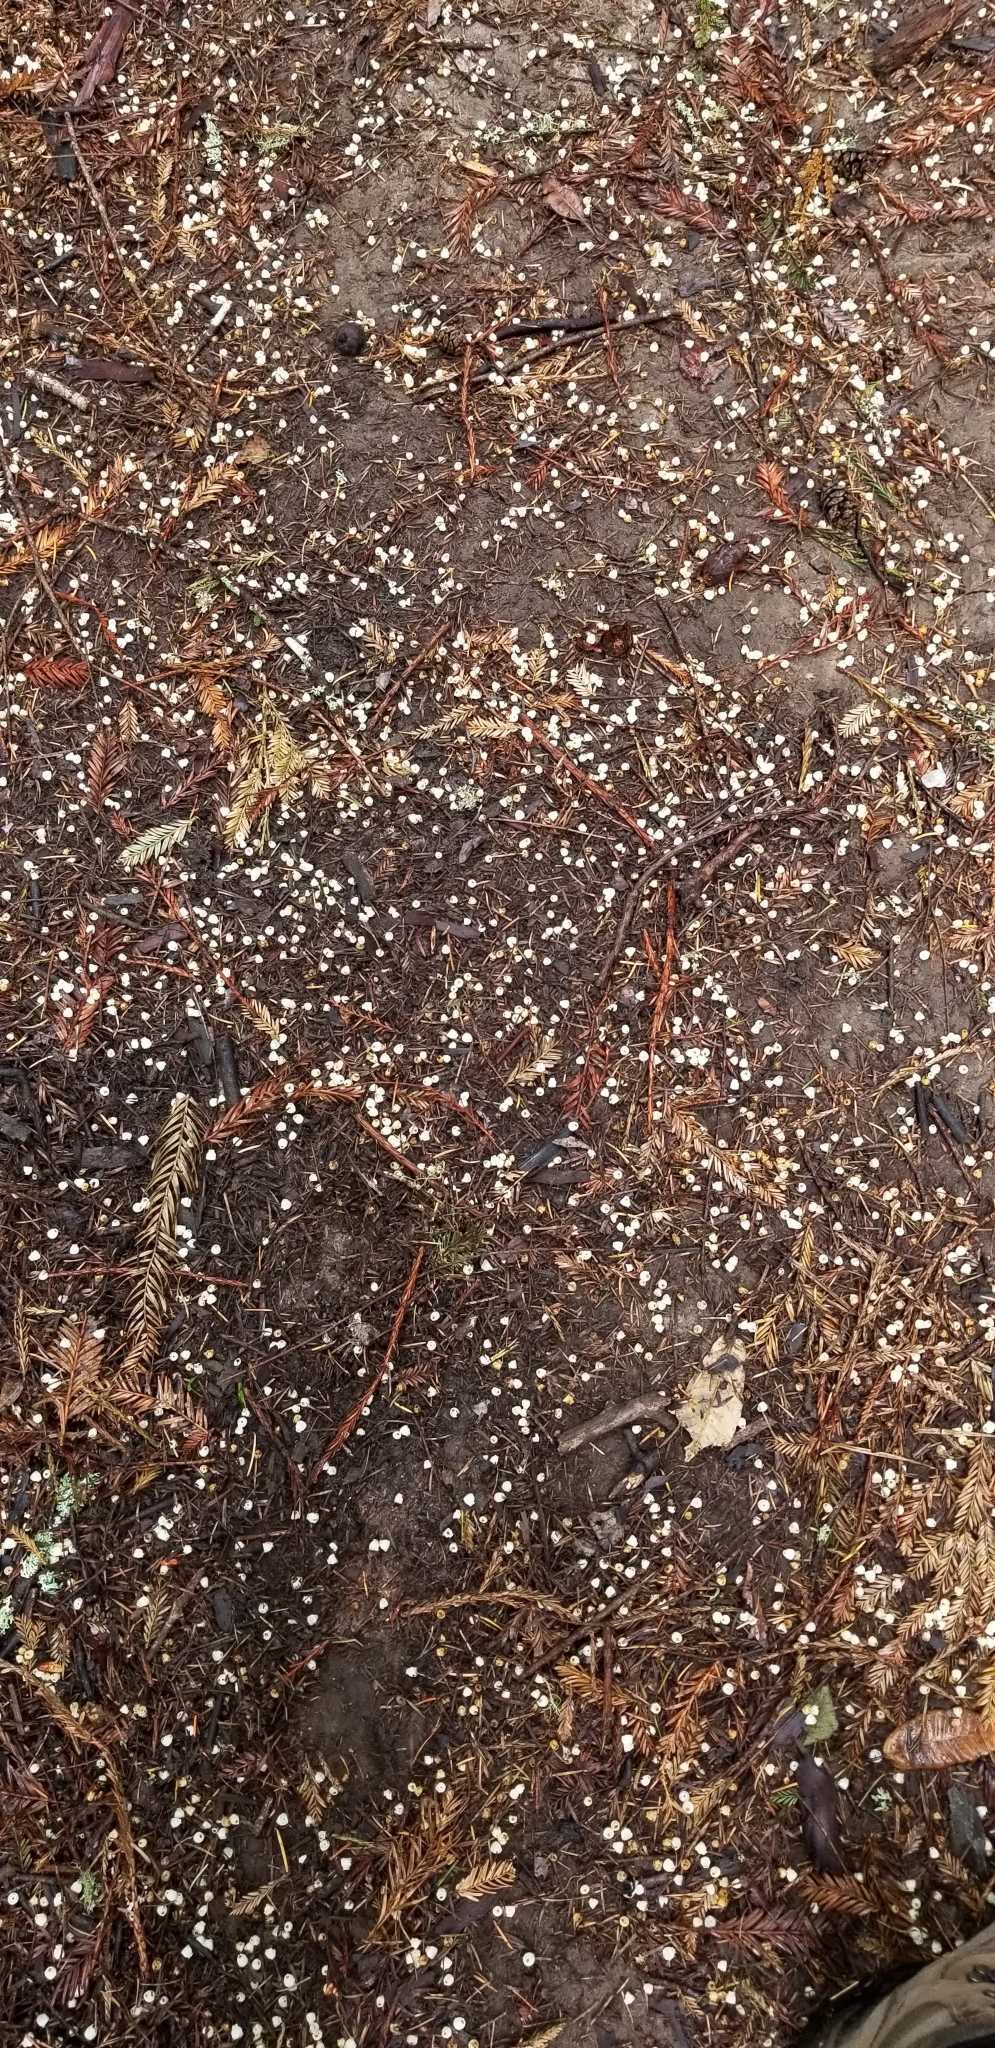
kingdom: Plantae
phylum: Tracheophyta
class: Magnoliopsida
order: Ericales
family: Ericaceae
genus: Arbutus
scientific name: Arbutus menziesii
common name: Pacific madrone
